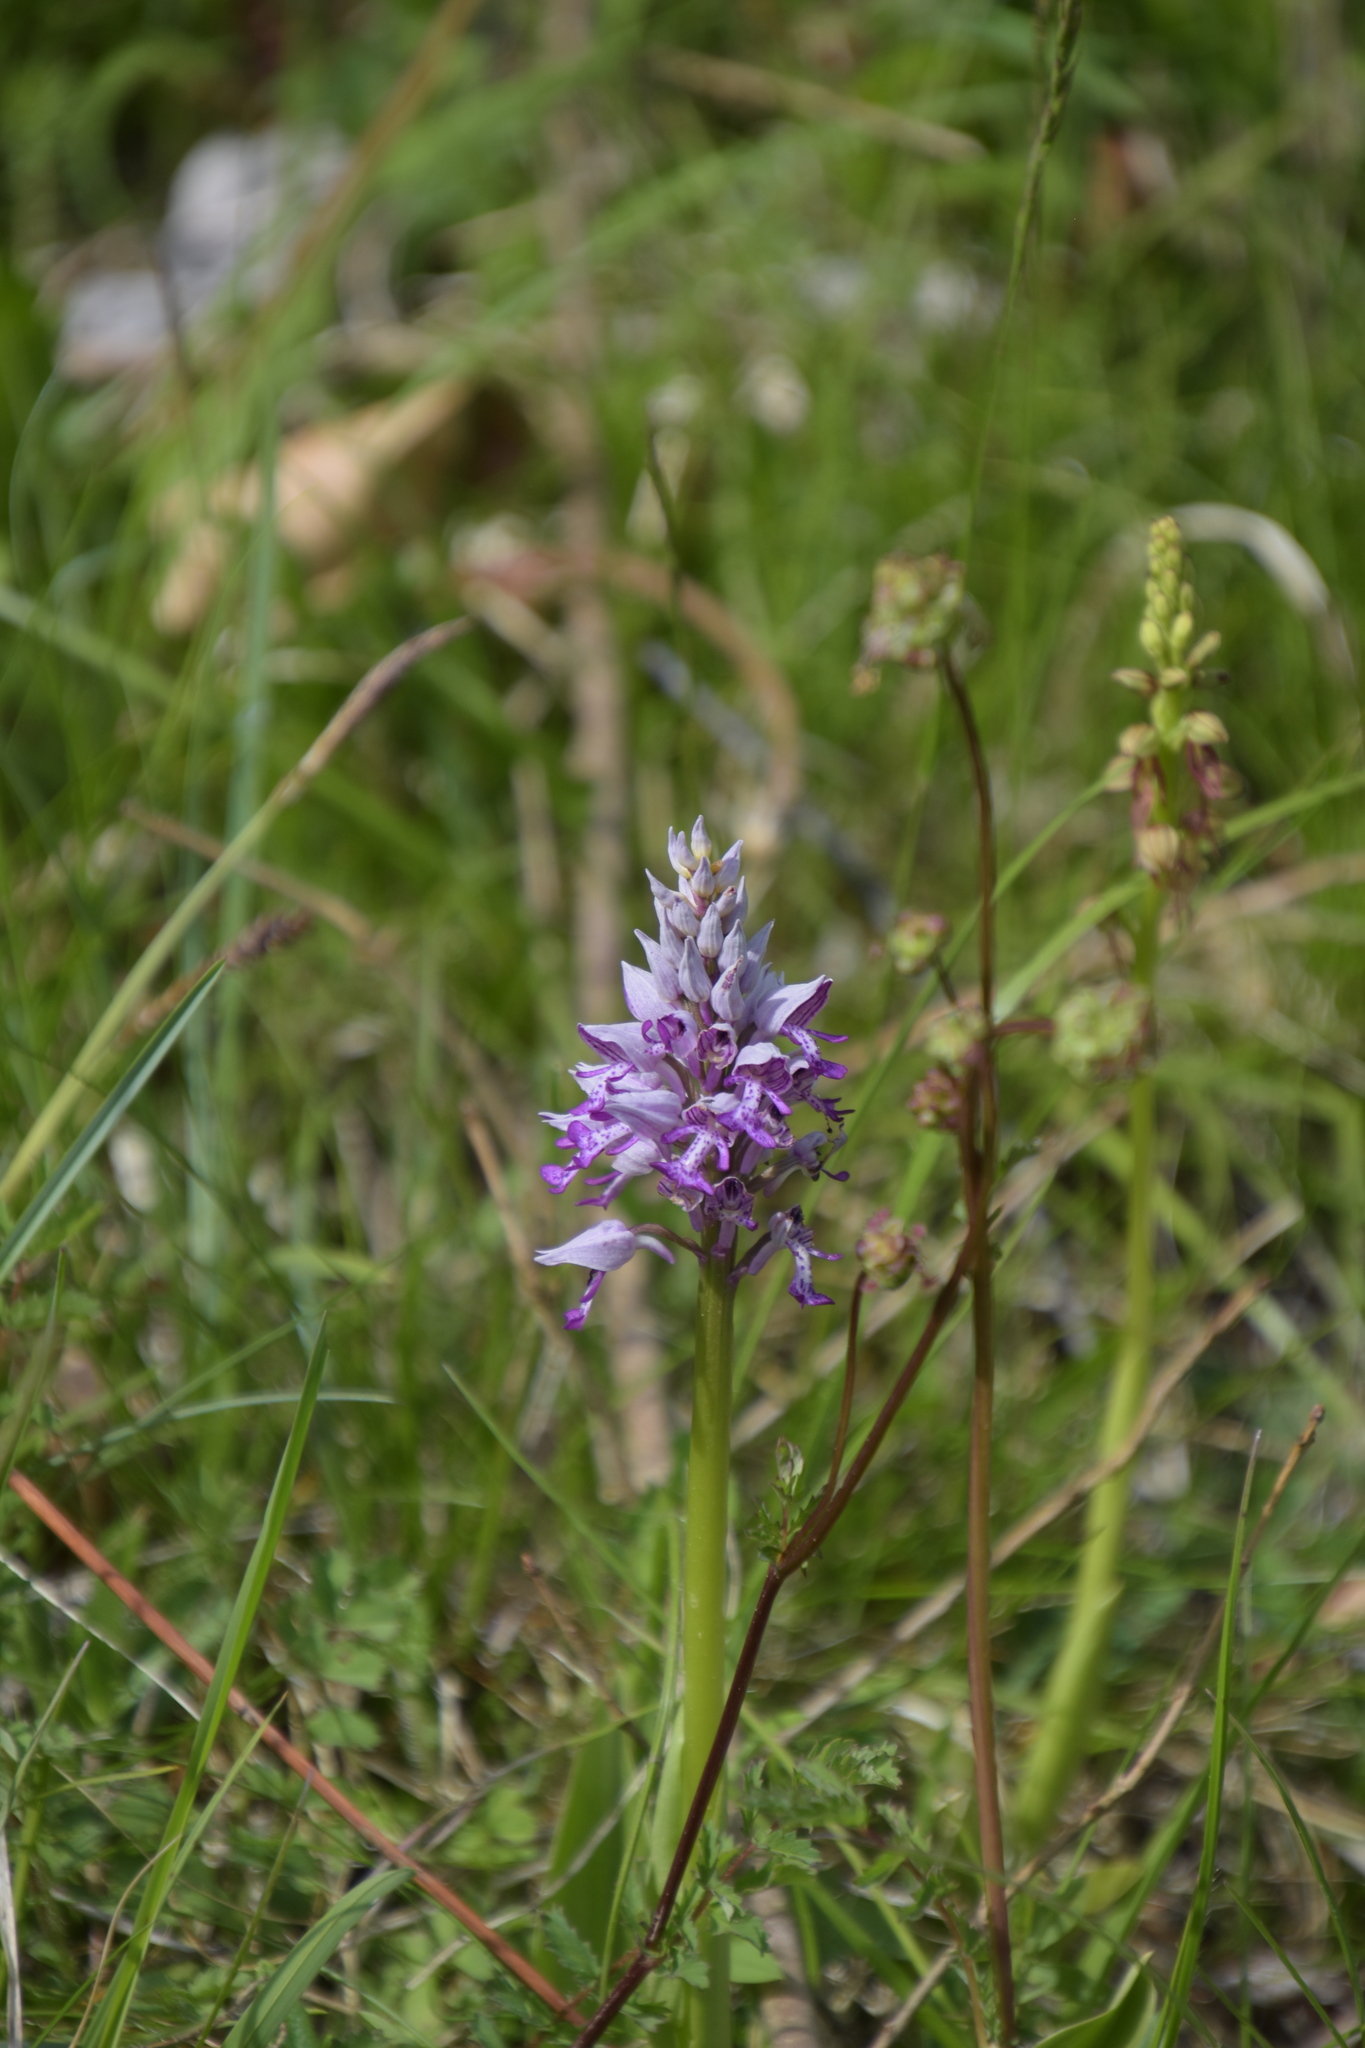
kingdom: Plantae
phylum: Tracheophyta
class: Liliopsida
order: Asparagales
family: Orchidaceae
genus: Orchis
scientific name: Orchis militaris
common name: Military orchid
